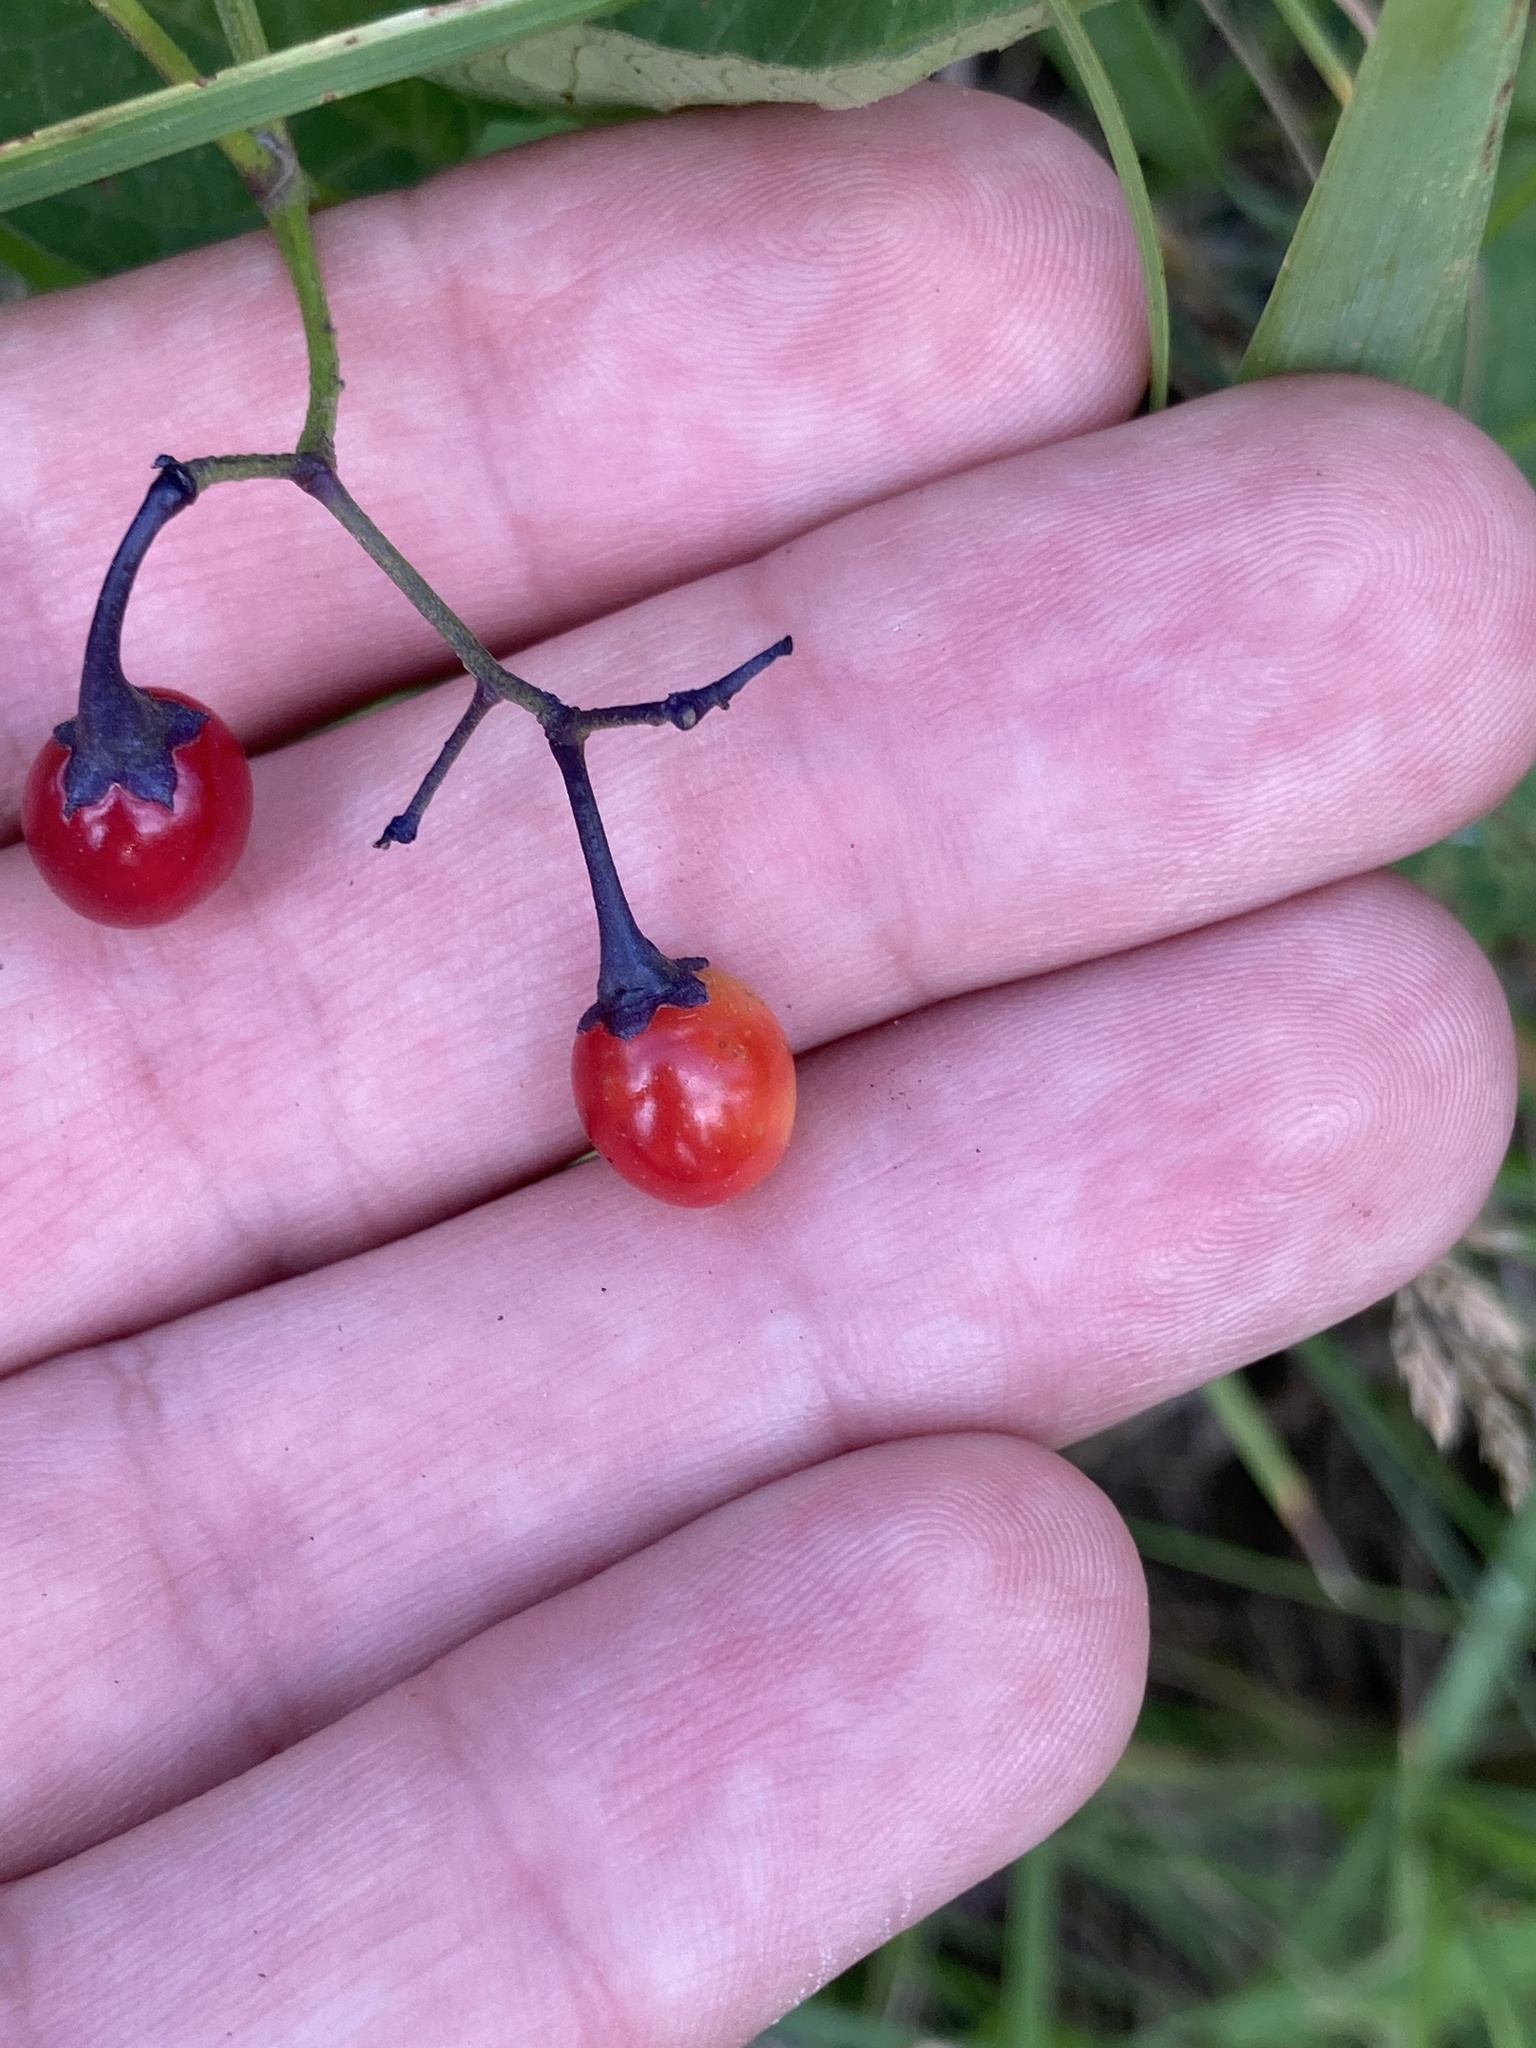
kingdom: Plantae
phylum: Tracheophyta
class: Magnoliopsida
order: Solanales
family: Solanaceae
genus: Solanum
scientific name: Solanum dulcamara
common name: Climbing nightshade
